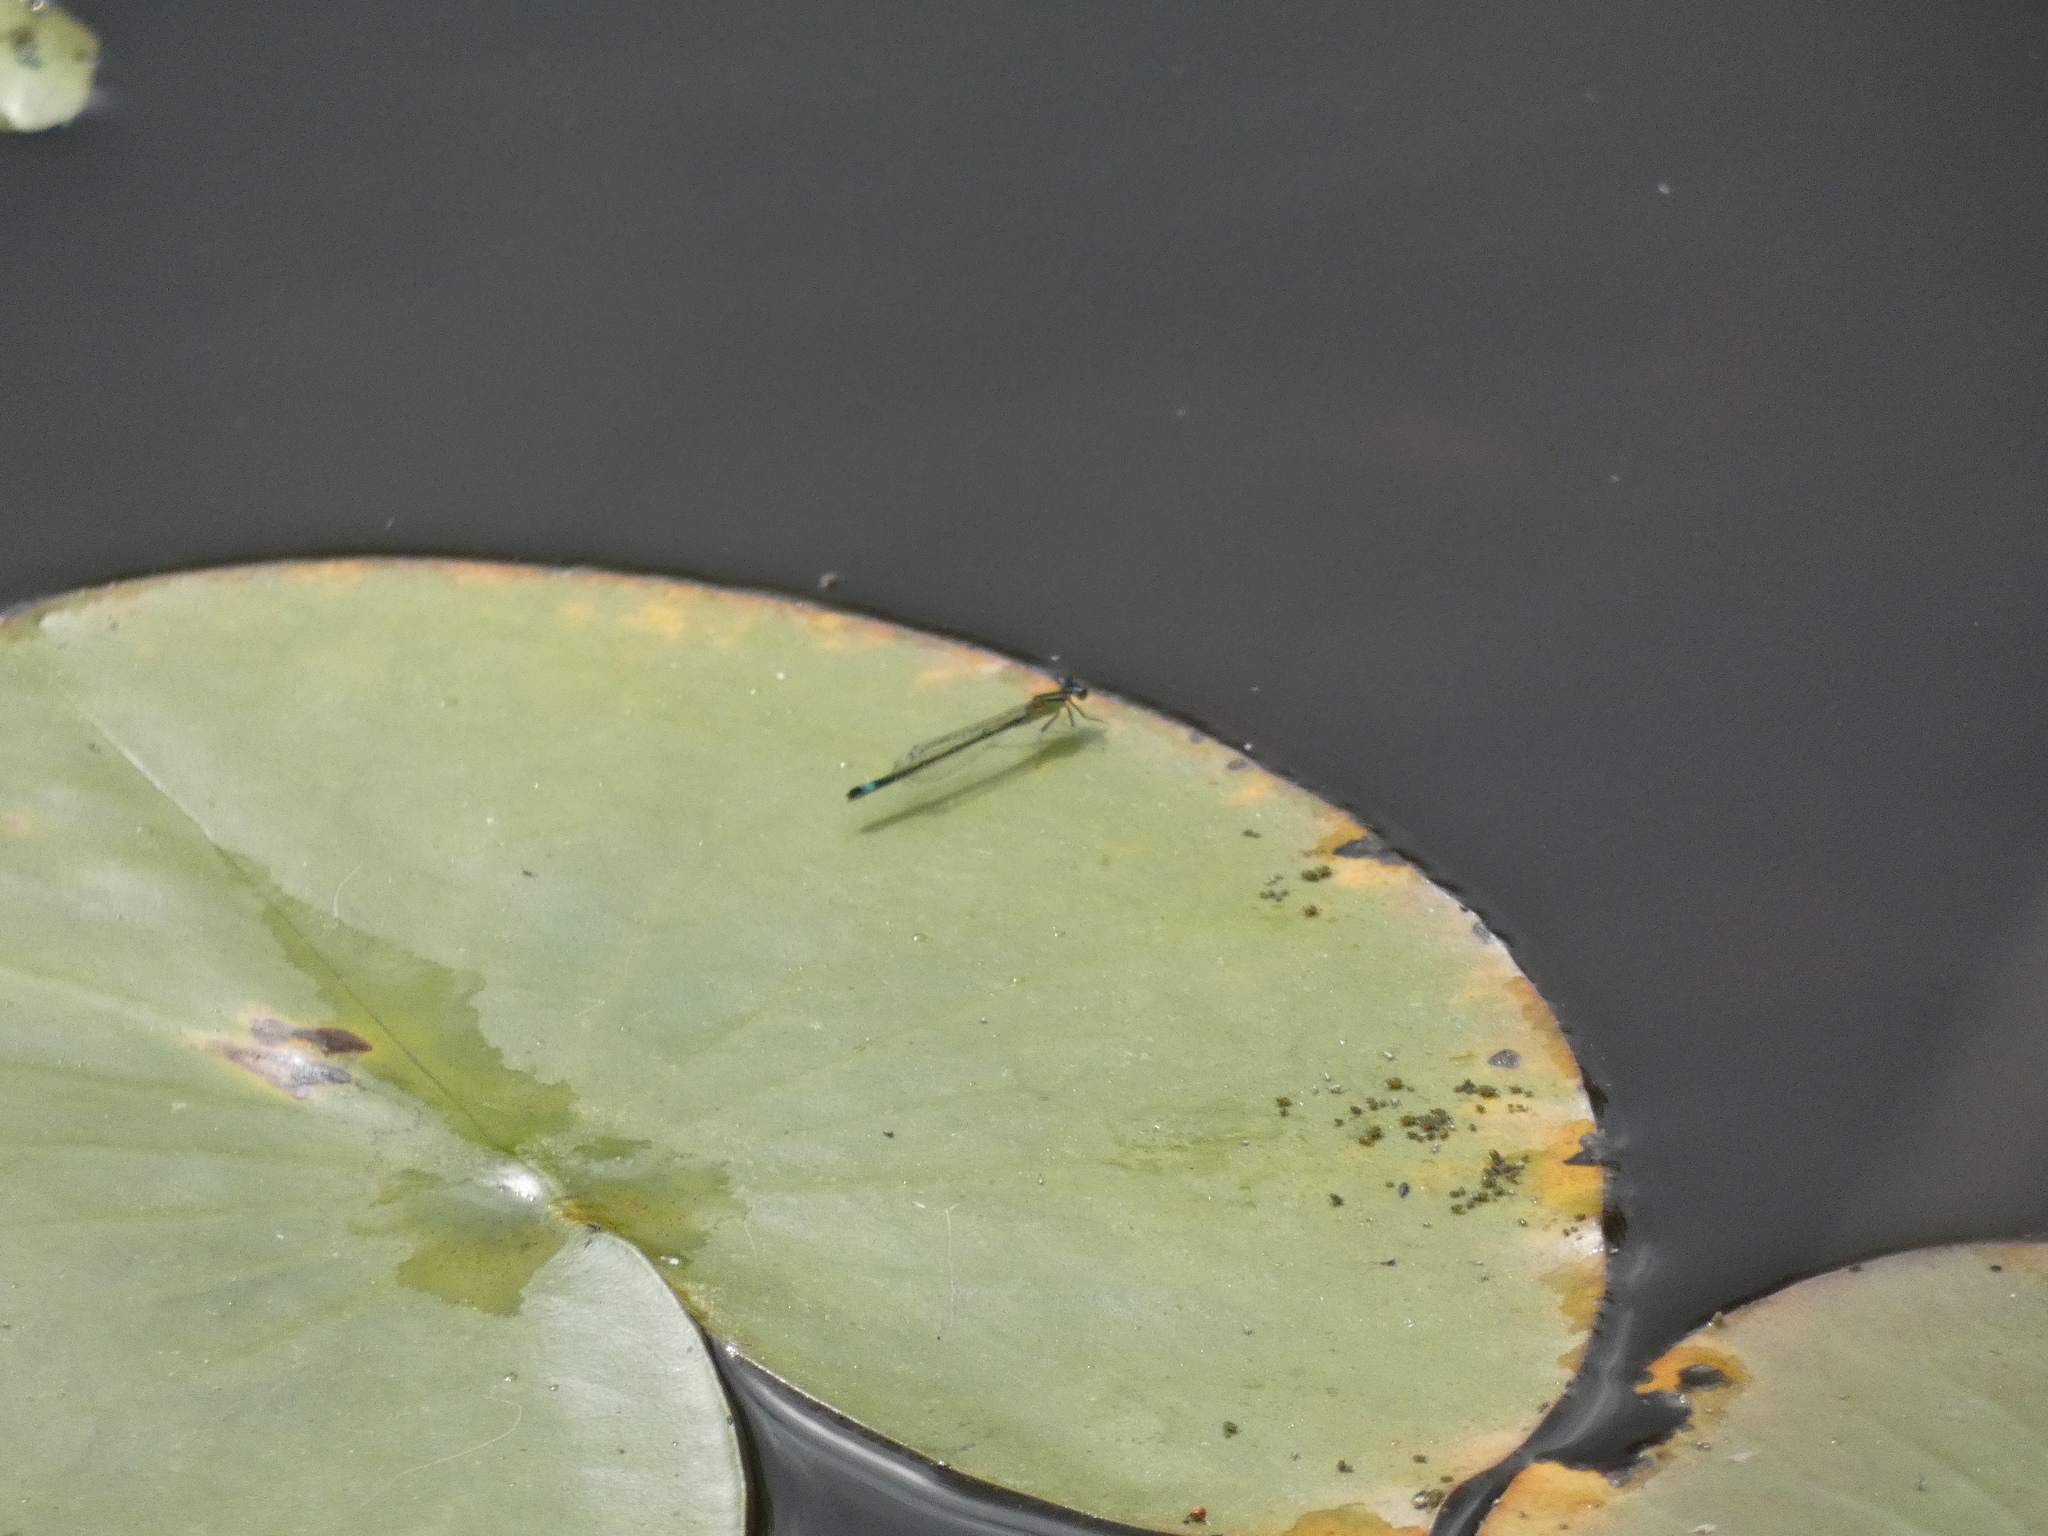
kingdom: Animalia
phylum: Arthropoda
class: Insecta
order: Odonata
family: Coenagrionidae
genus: Ischnura
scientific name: Ischnura elegans
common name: Blue-tailed damselfly
